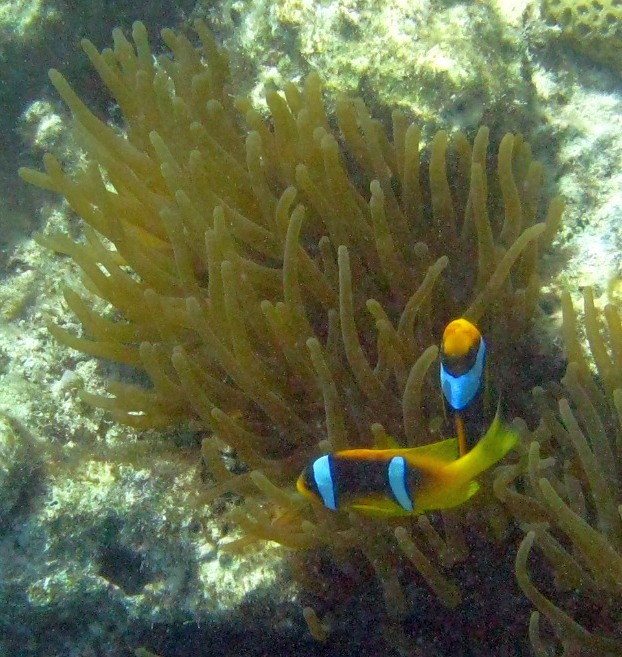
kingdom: Animalia
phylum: Chordata
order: Perciformes
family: Pomacentridae
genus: Amphiprion
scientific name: Amphiprion bicinctus
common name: Two-banded anemonefish
